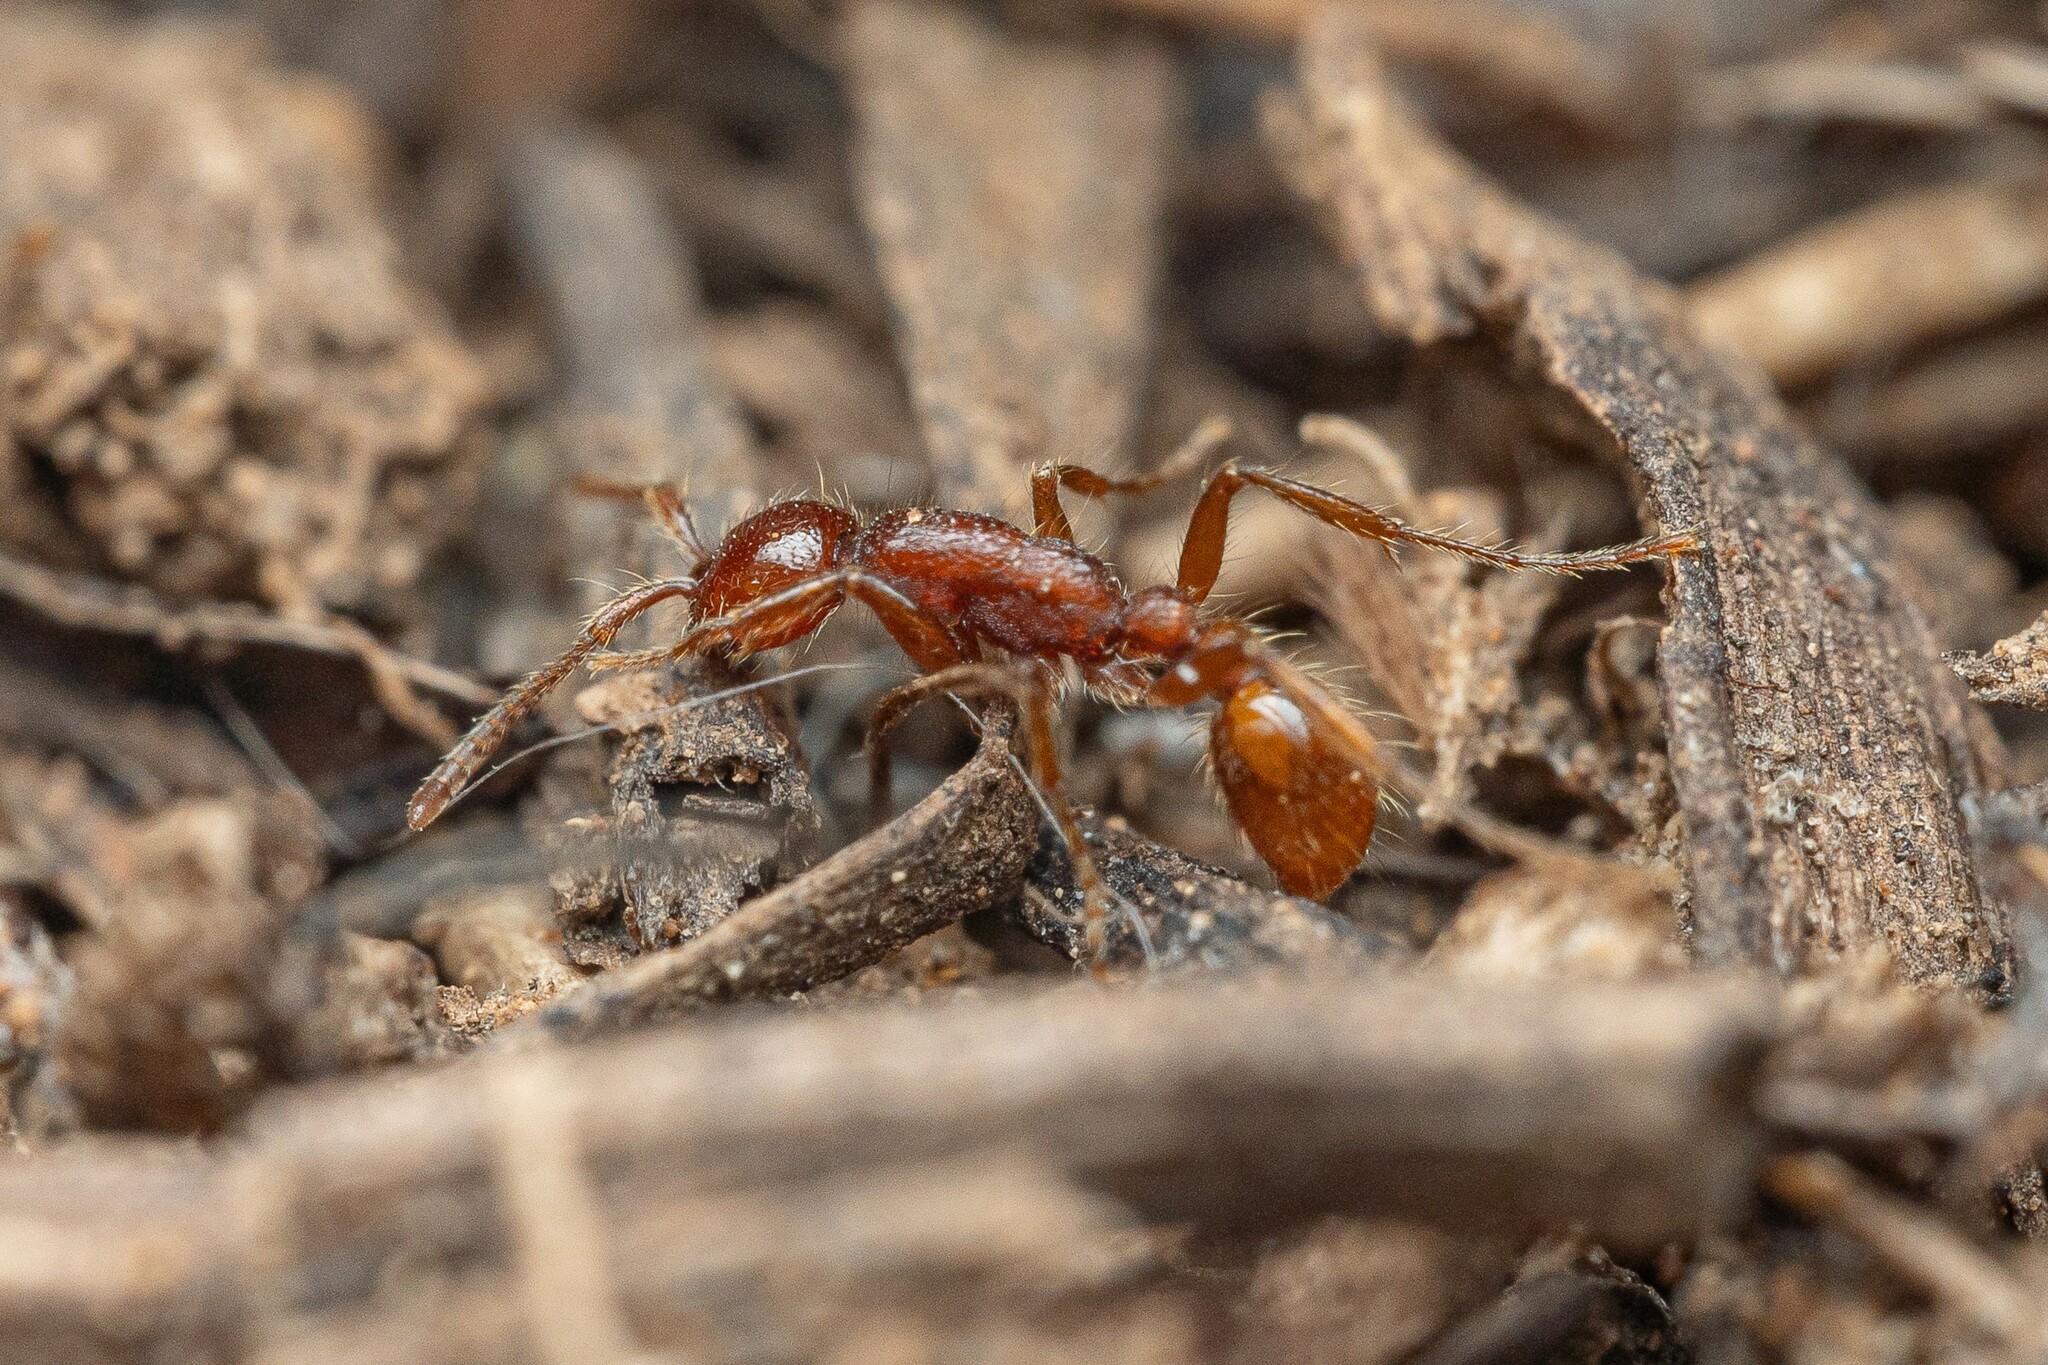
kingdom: Animalia
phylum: Arthropoda
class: Insecta
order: Hymenoptera
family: Formicidae
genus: Neivamyrmex
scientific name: Neivamyrmex harrisii
